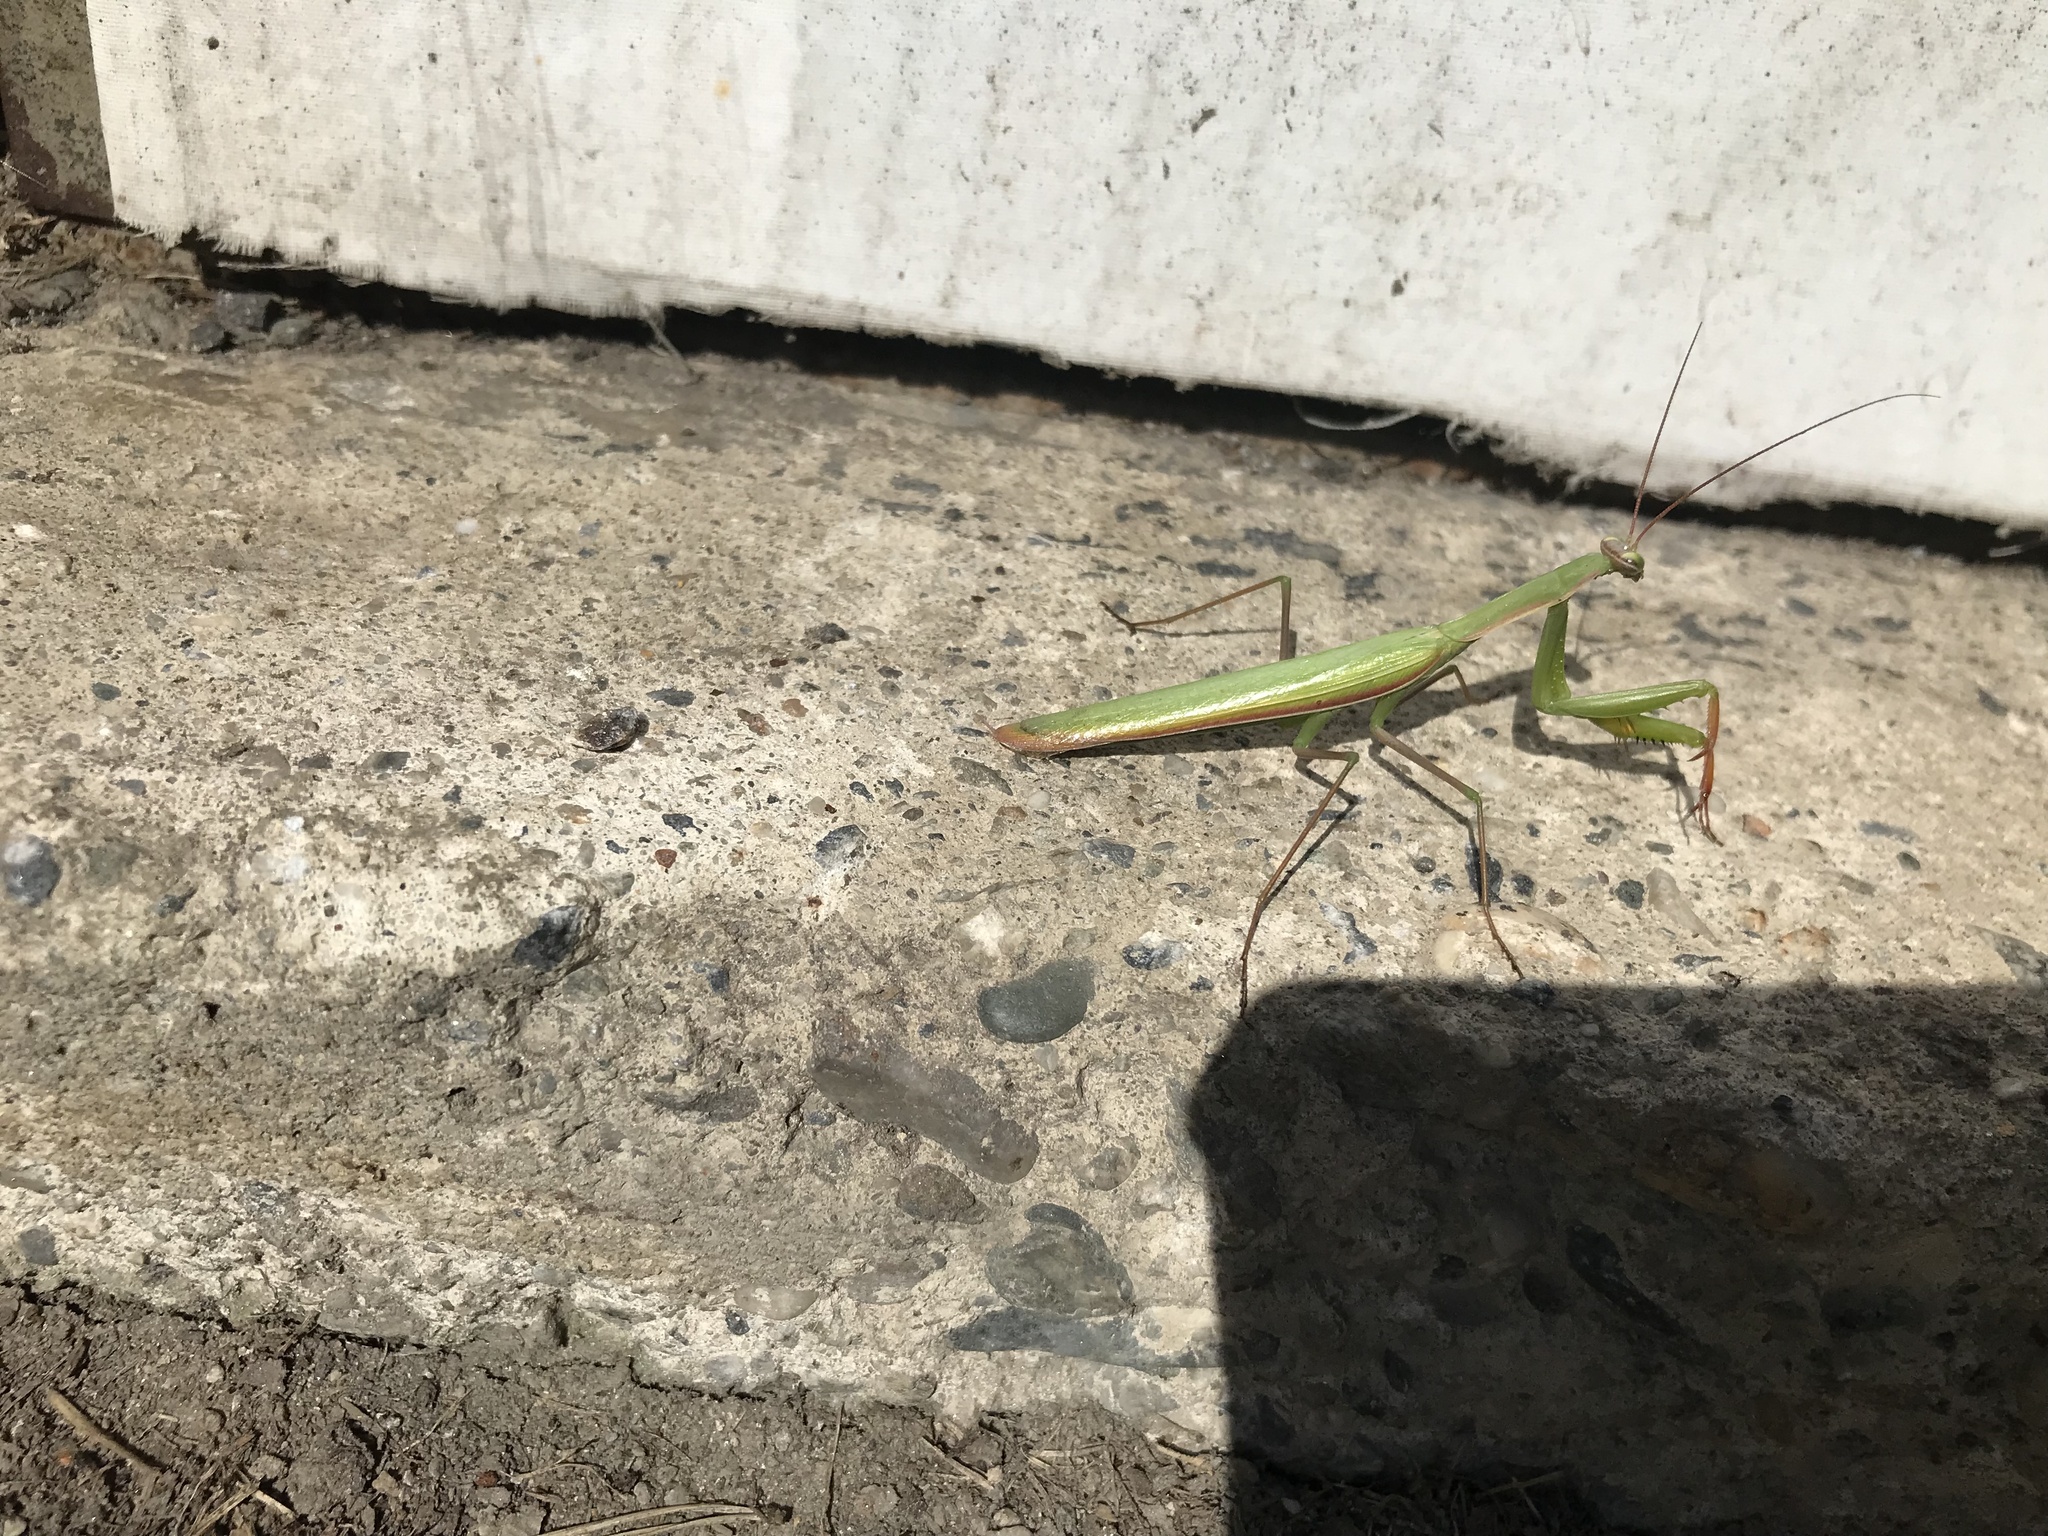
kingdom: Animalia
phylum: Arthropoda
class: Insecta
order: Mantodea
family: Mantidae
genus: Mantis
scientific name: Mantis religiosa
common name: Praying mantis
